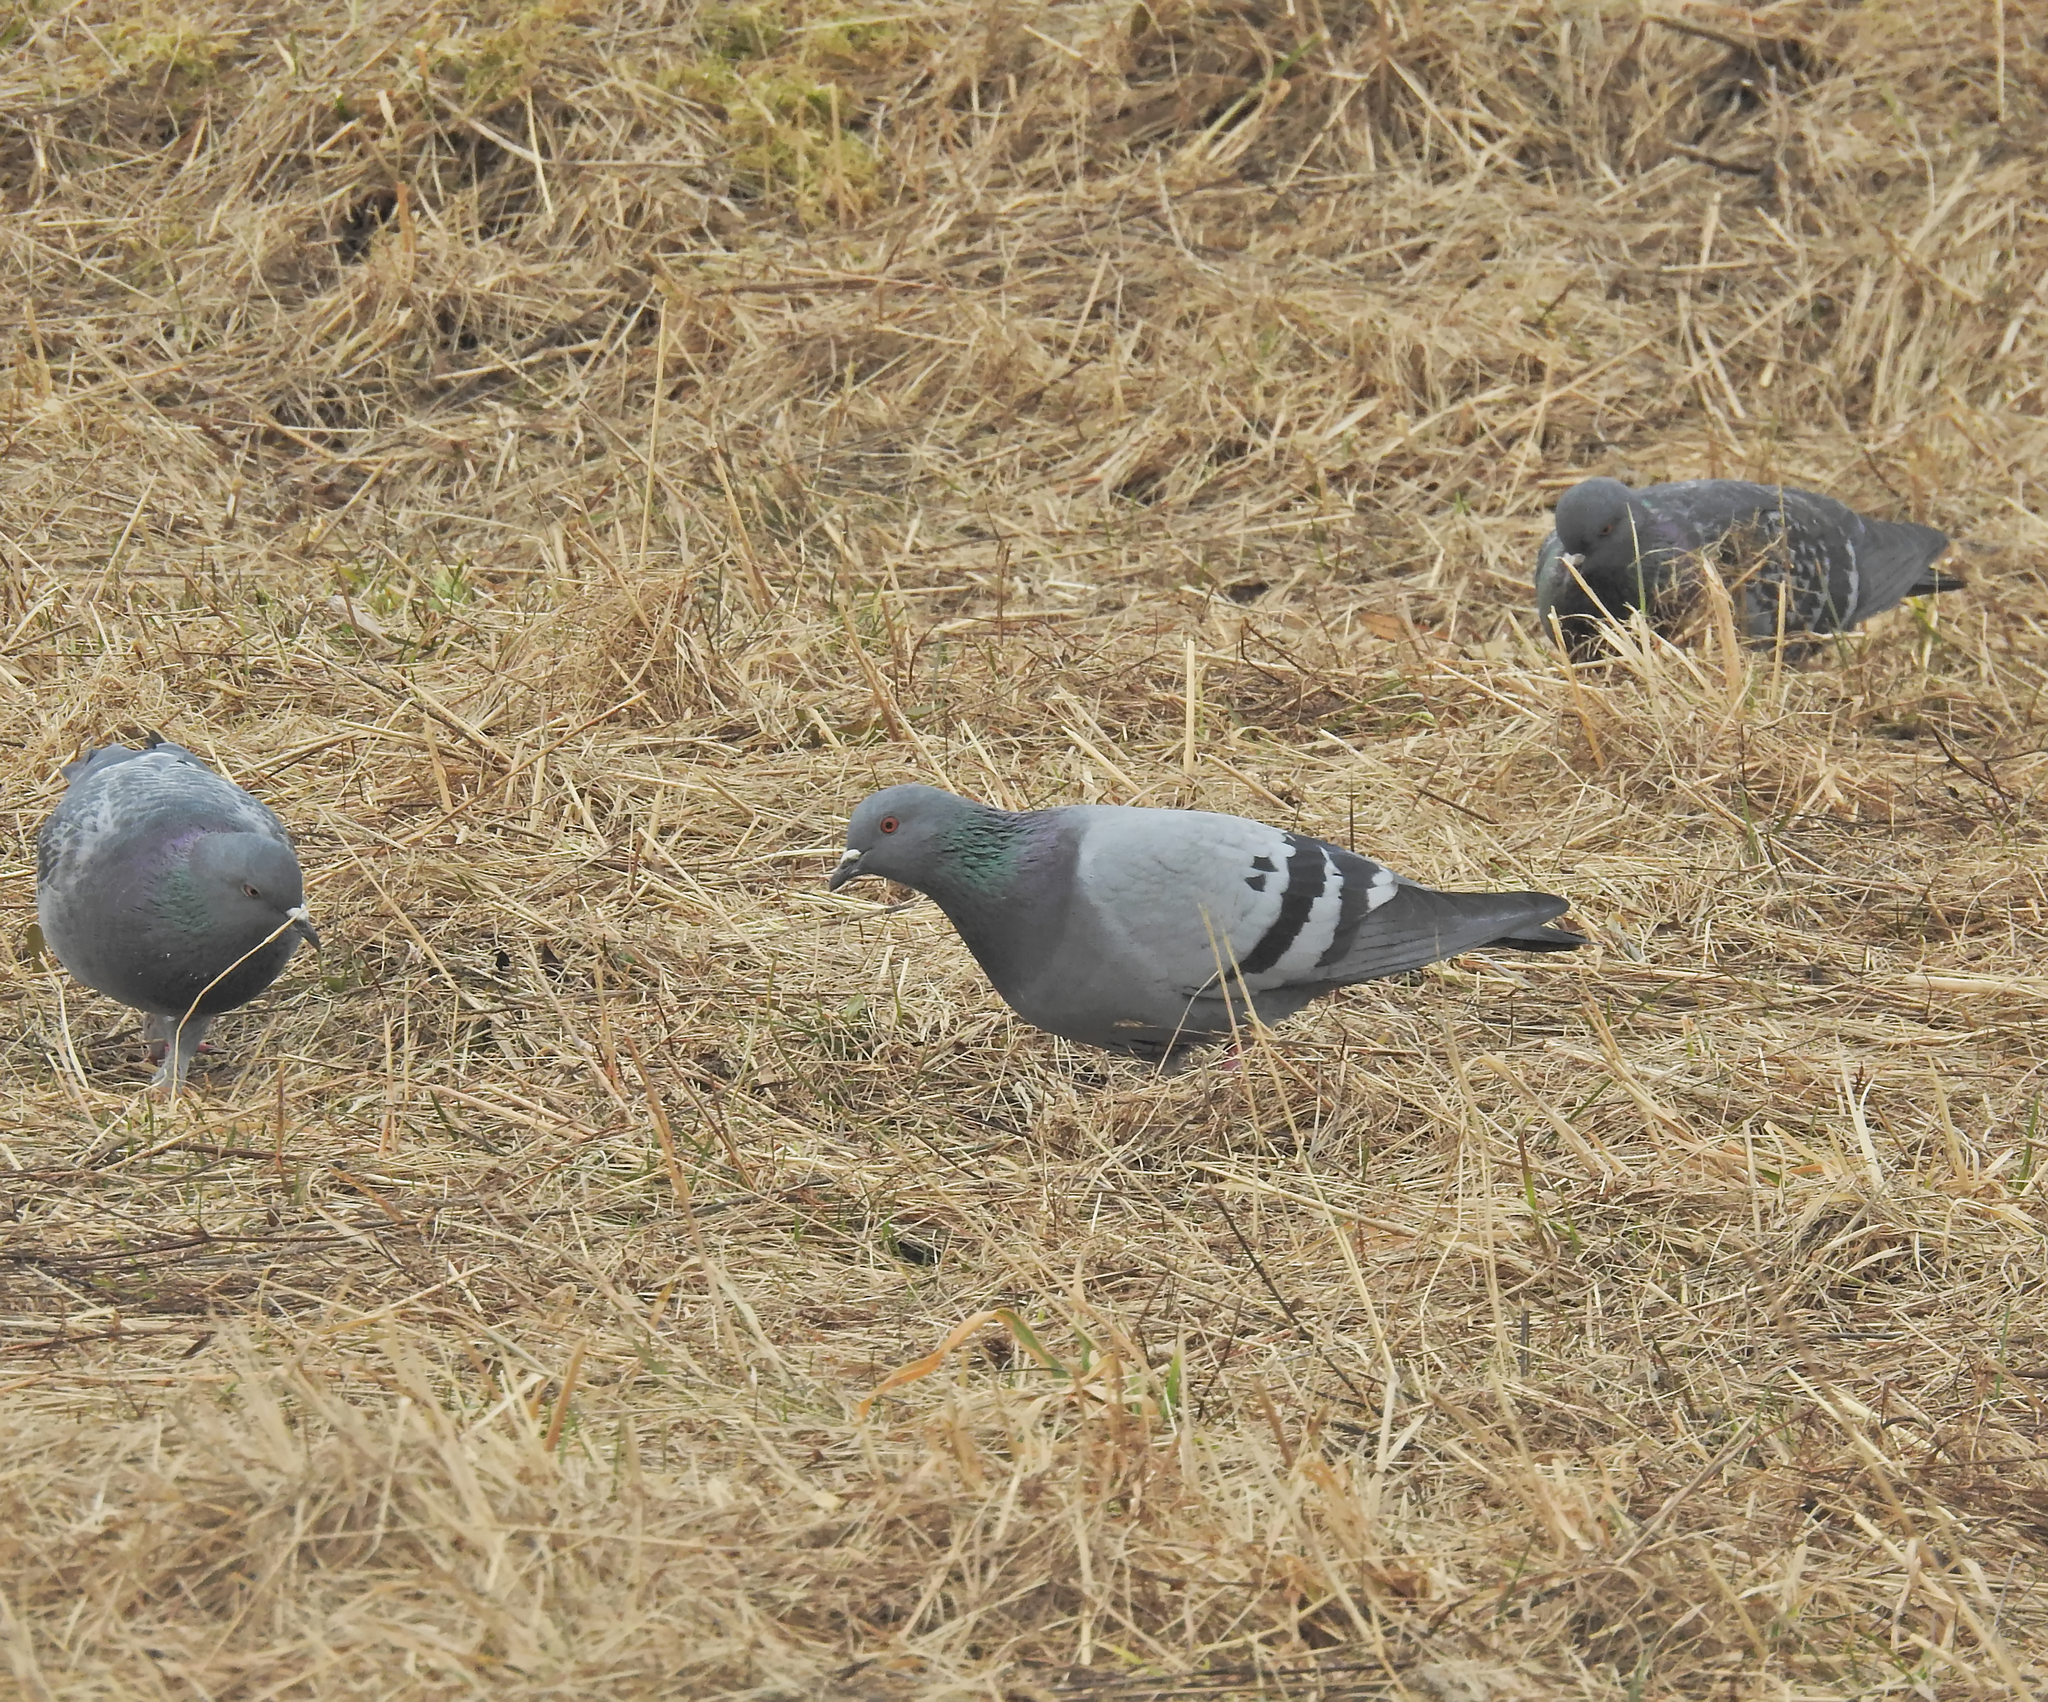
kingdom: Animalia
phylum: Chordata
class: Aves
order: Columbiformes
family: Columbidae
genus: Columba
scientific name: Columba livia
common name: Rock pigeon
